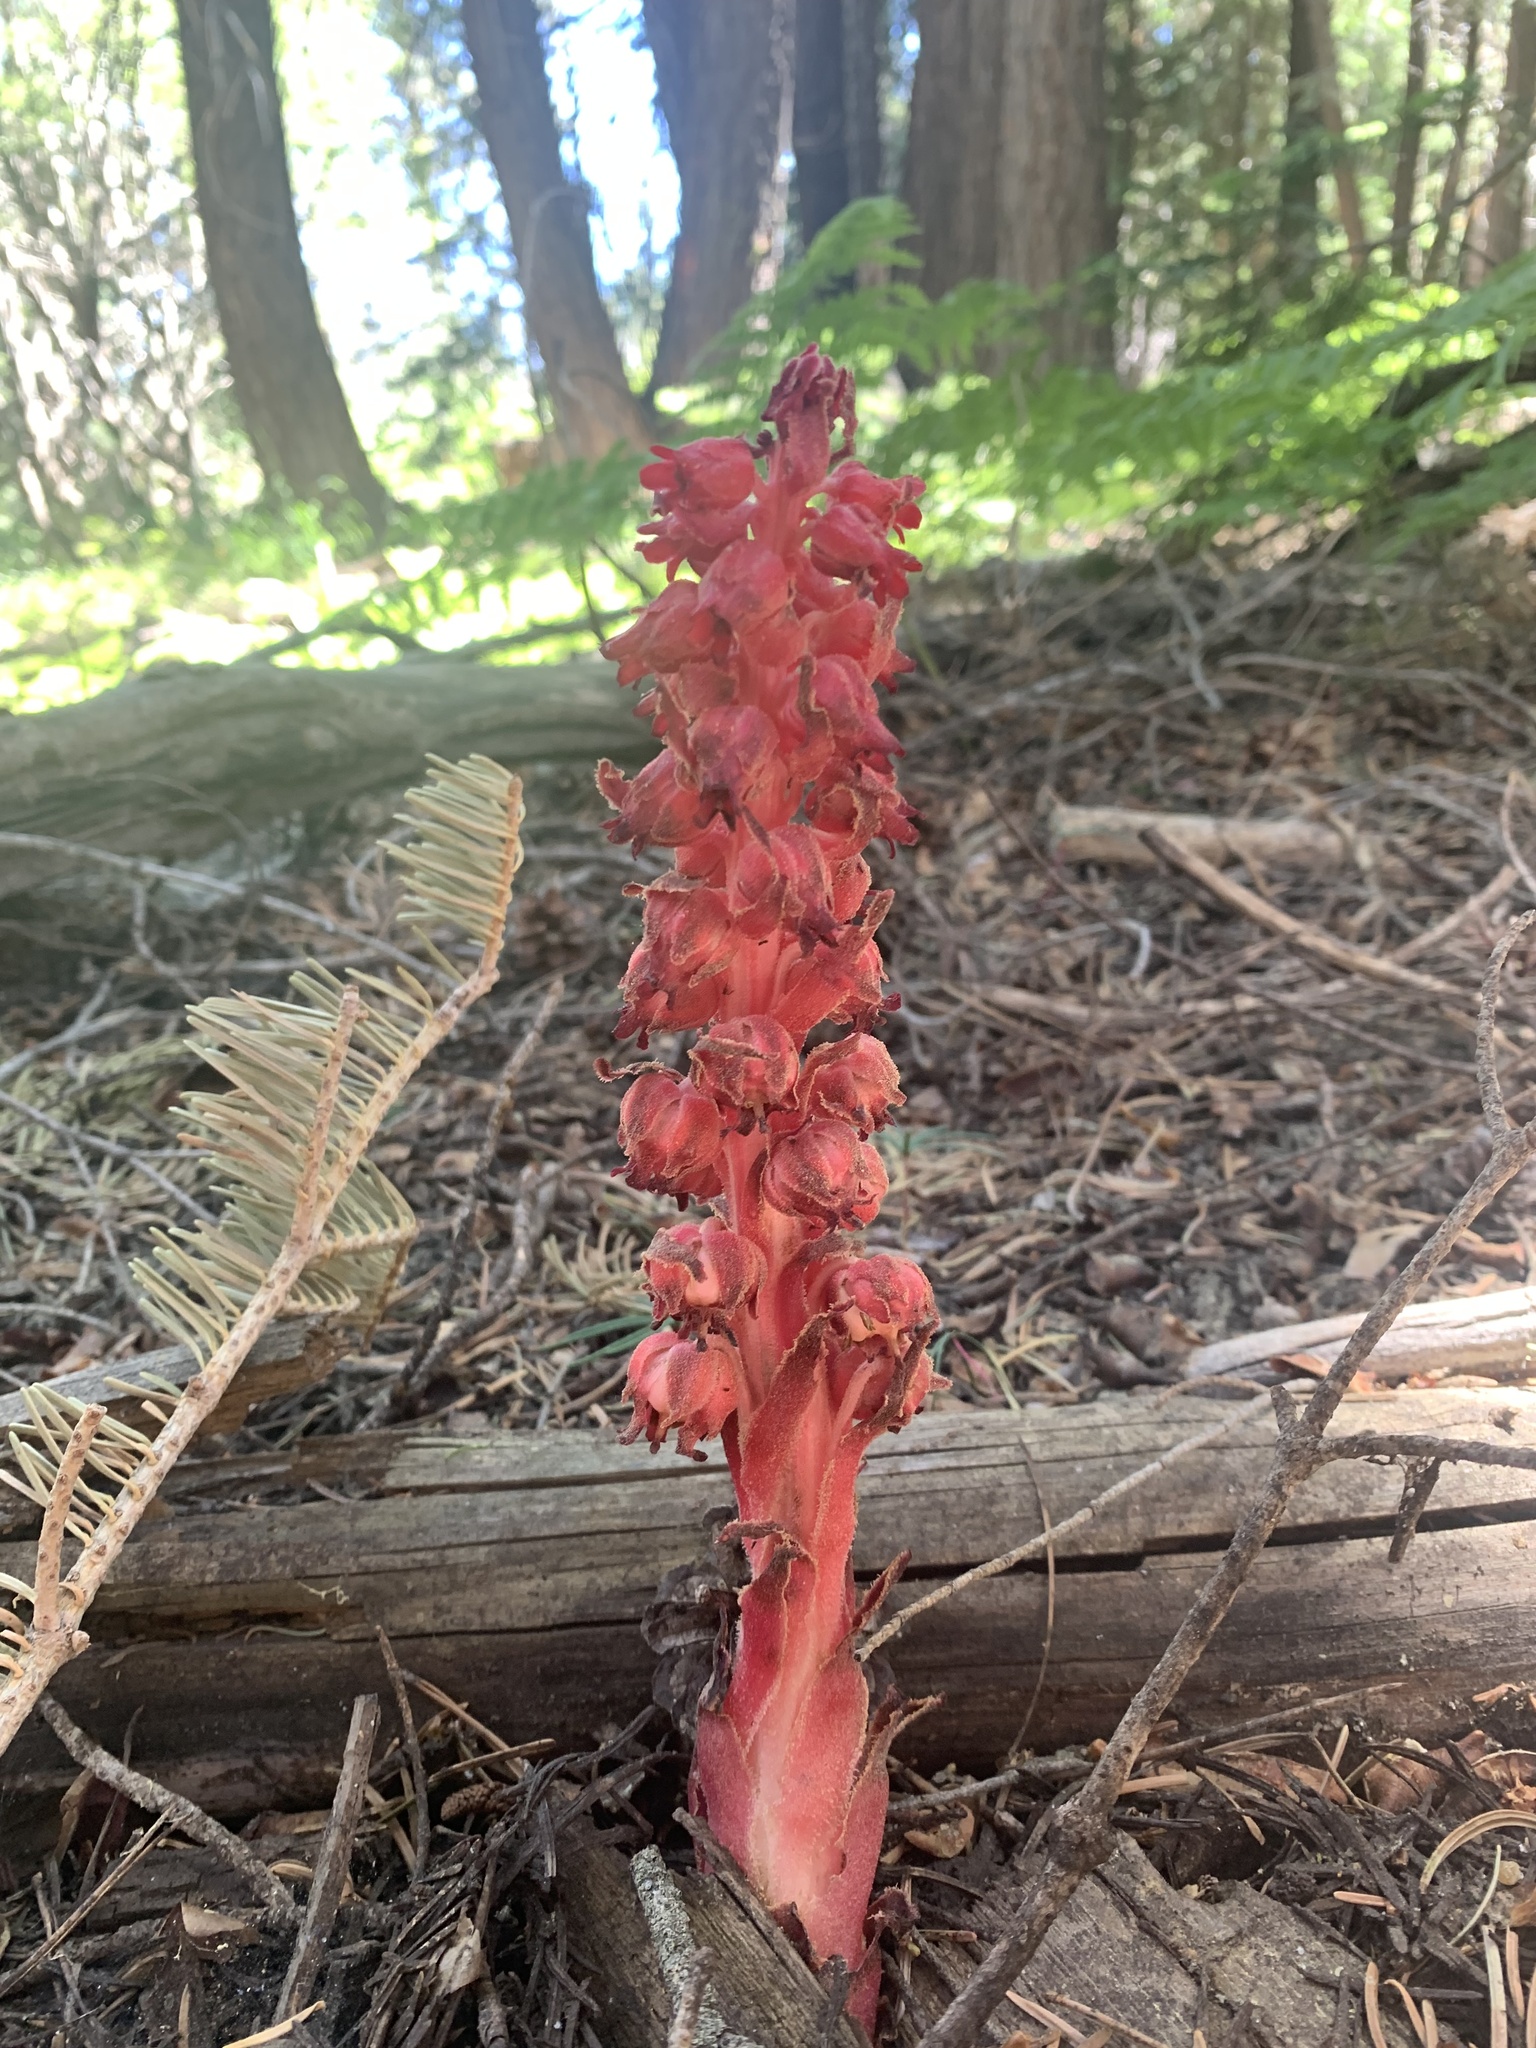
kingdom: Plantae
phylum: Tracheophyta
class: Magnoliopsida
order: Ericales
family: Ericaceae
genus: Sarcodes
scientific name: Sarcodes sanguinea
